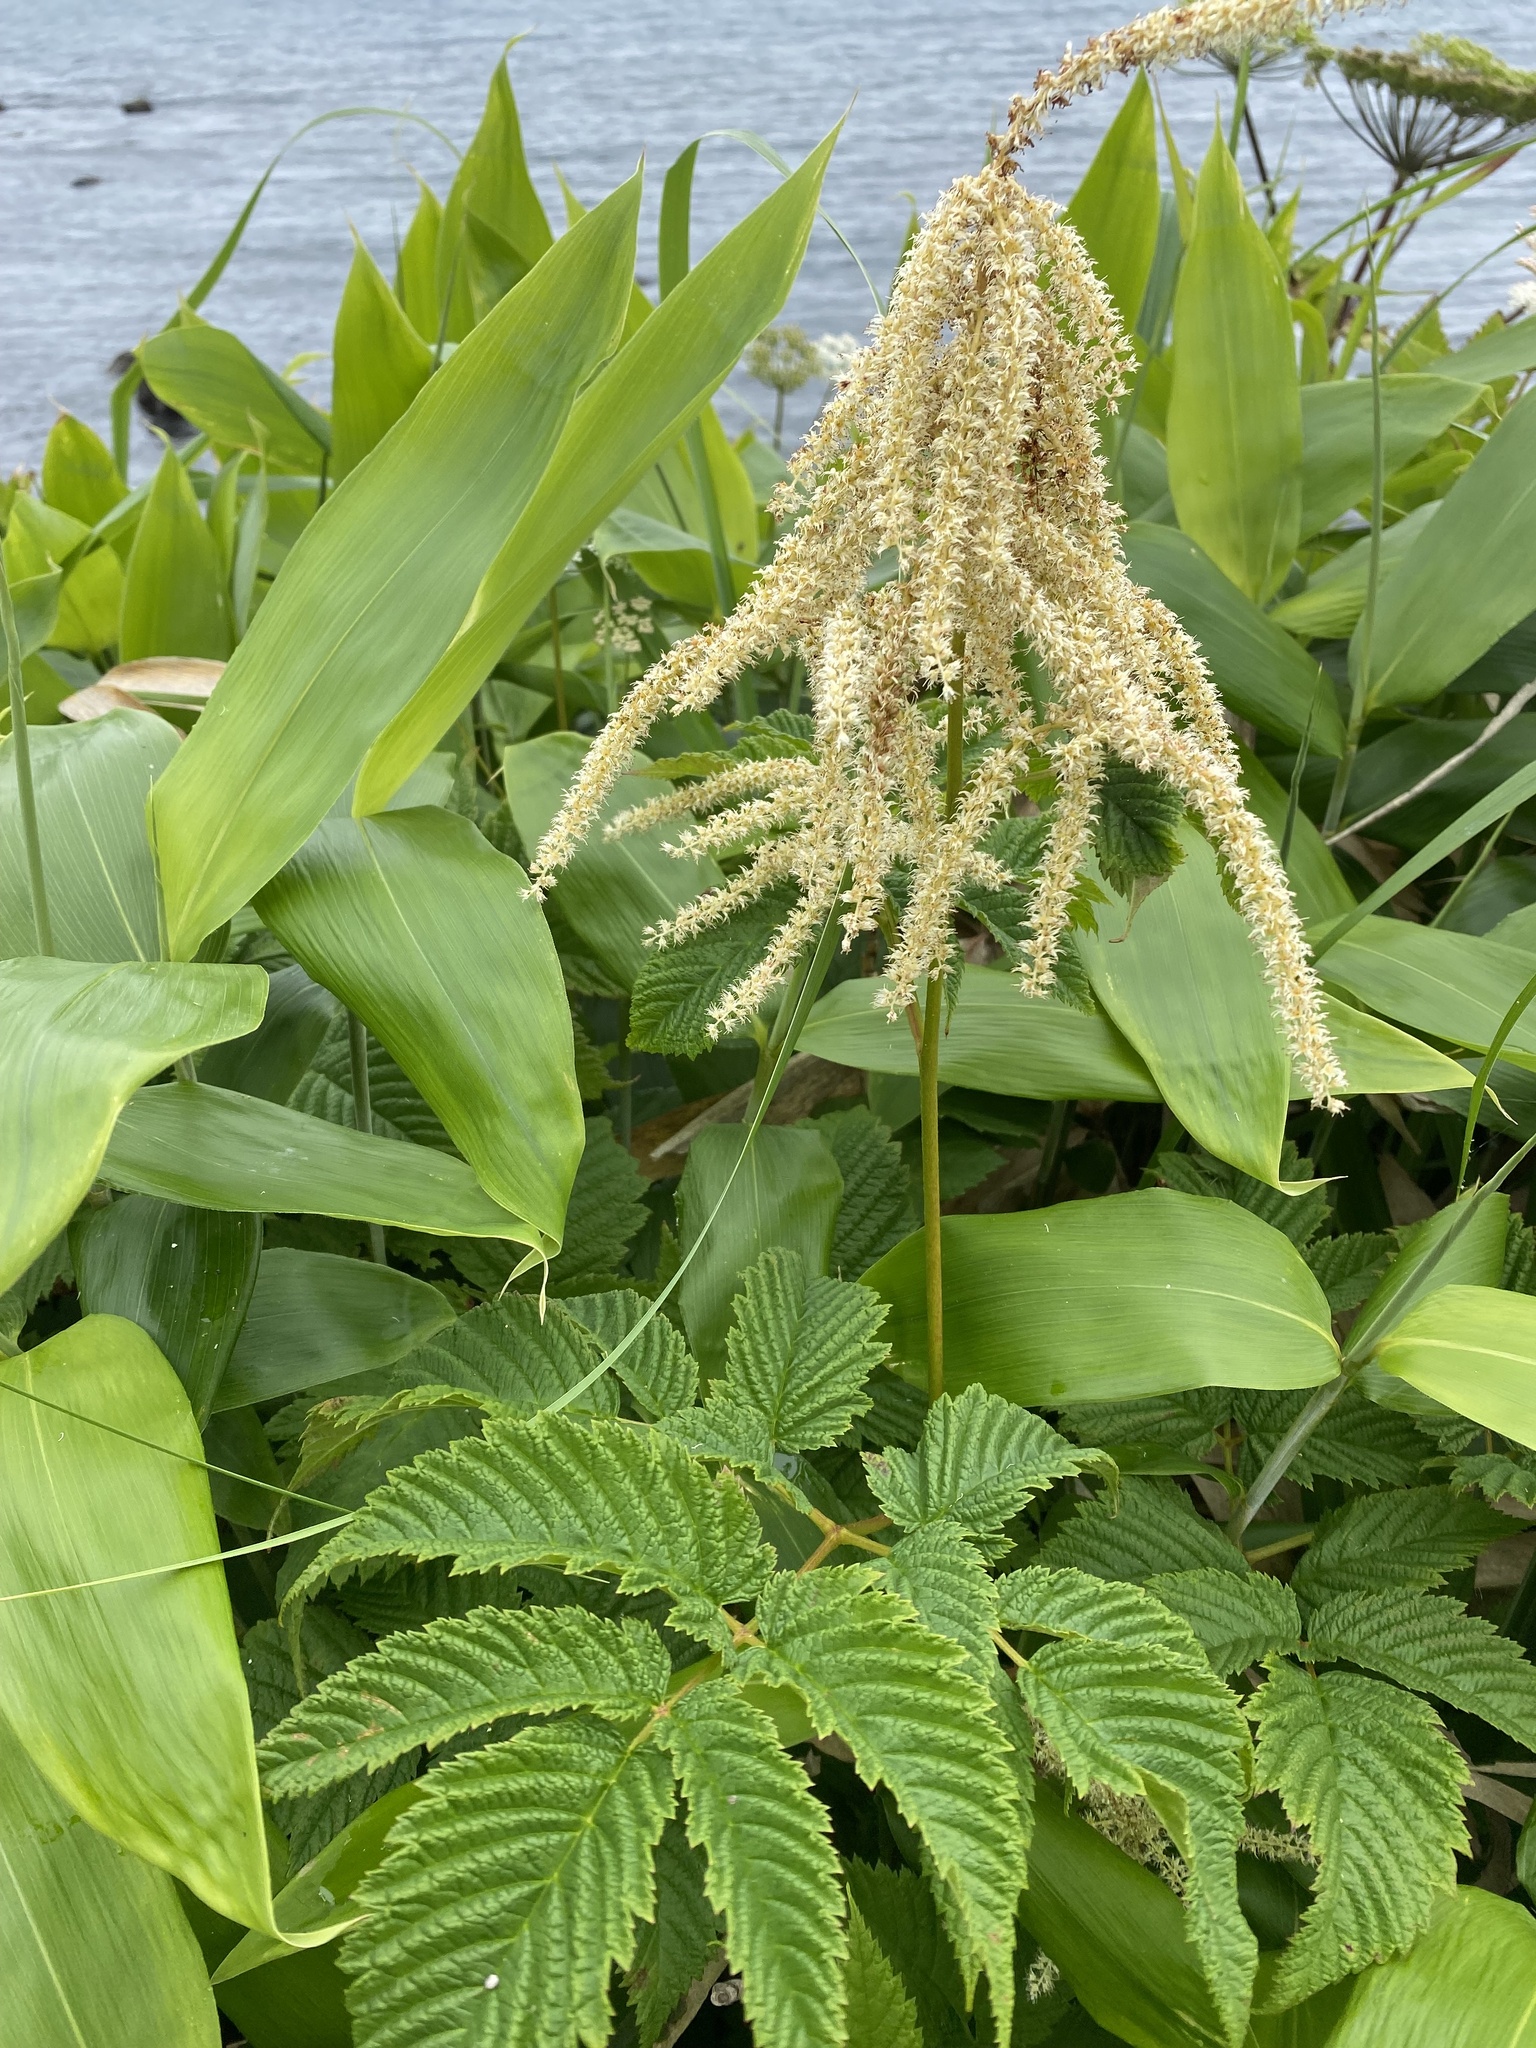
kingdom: Plantae
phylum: Tracheophyta
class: Magnoliopsida
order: Rosales
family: Rosaceae
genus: Aruncus
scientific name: Aruncus dioicus
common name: Buck's-beard
